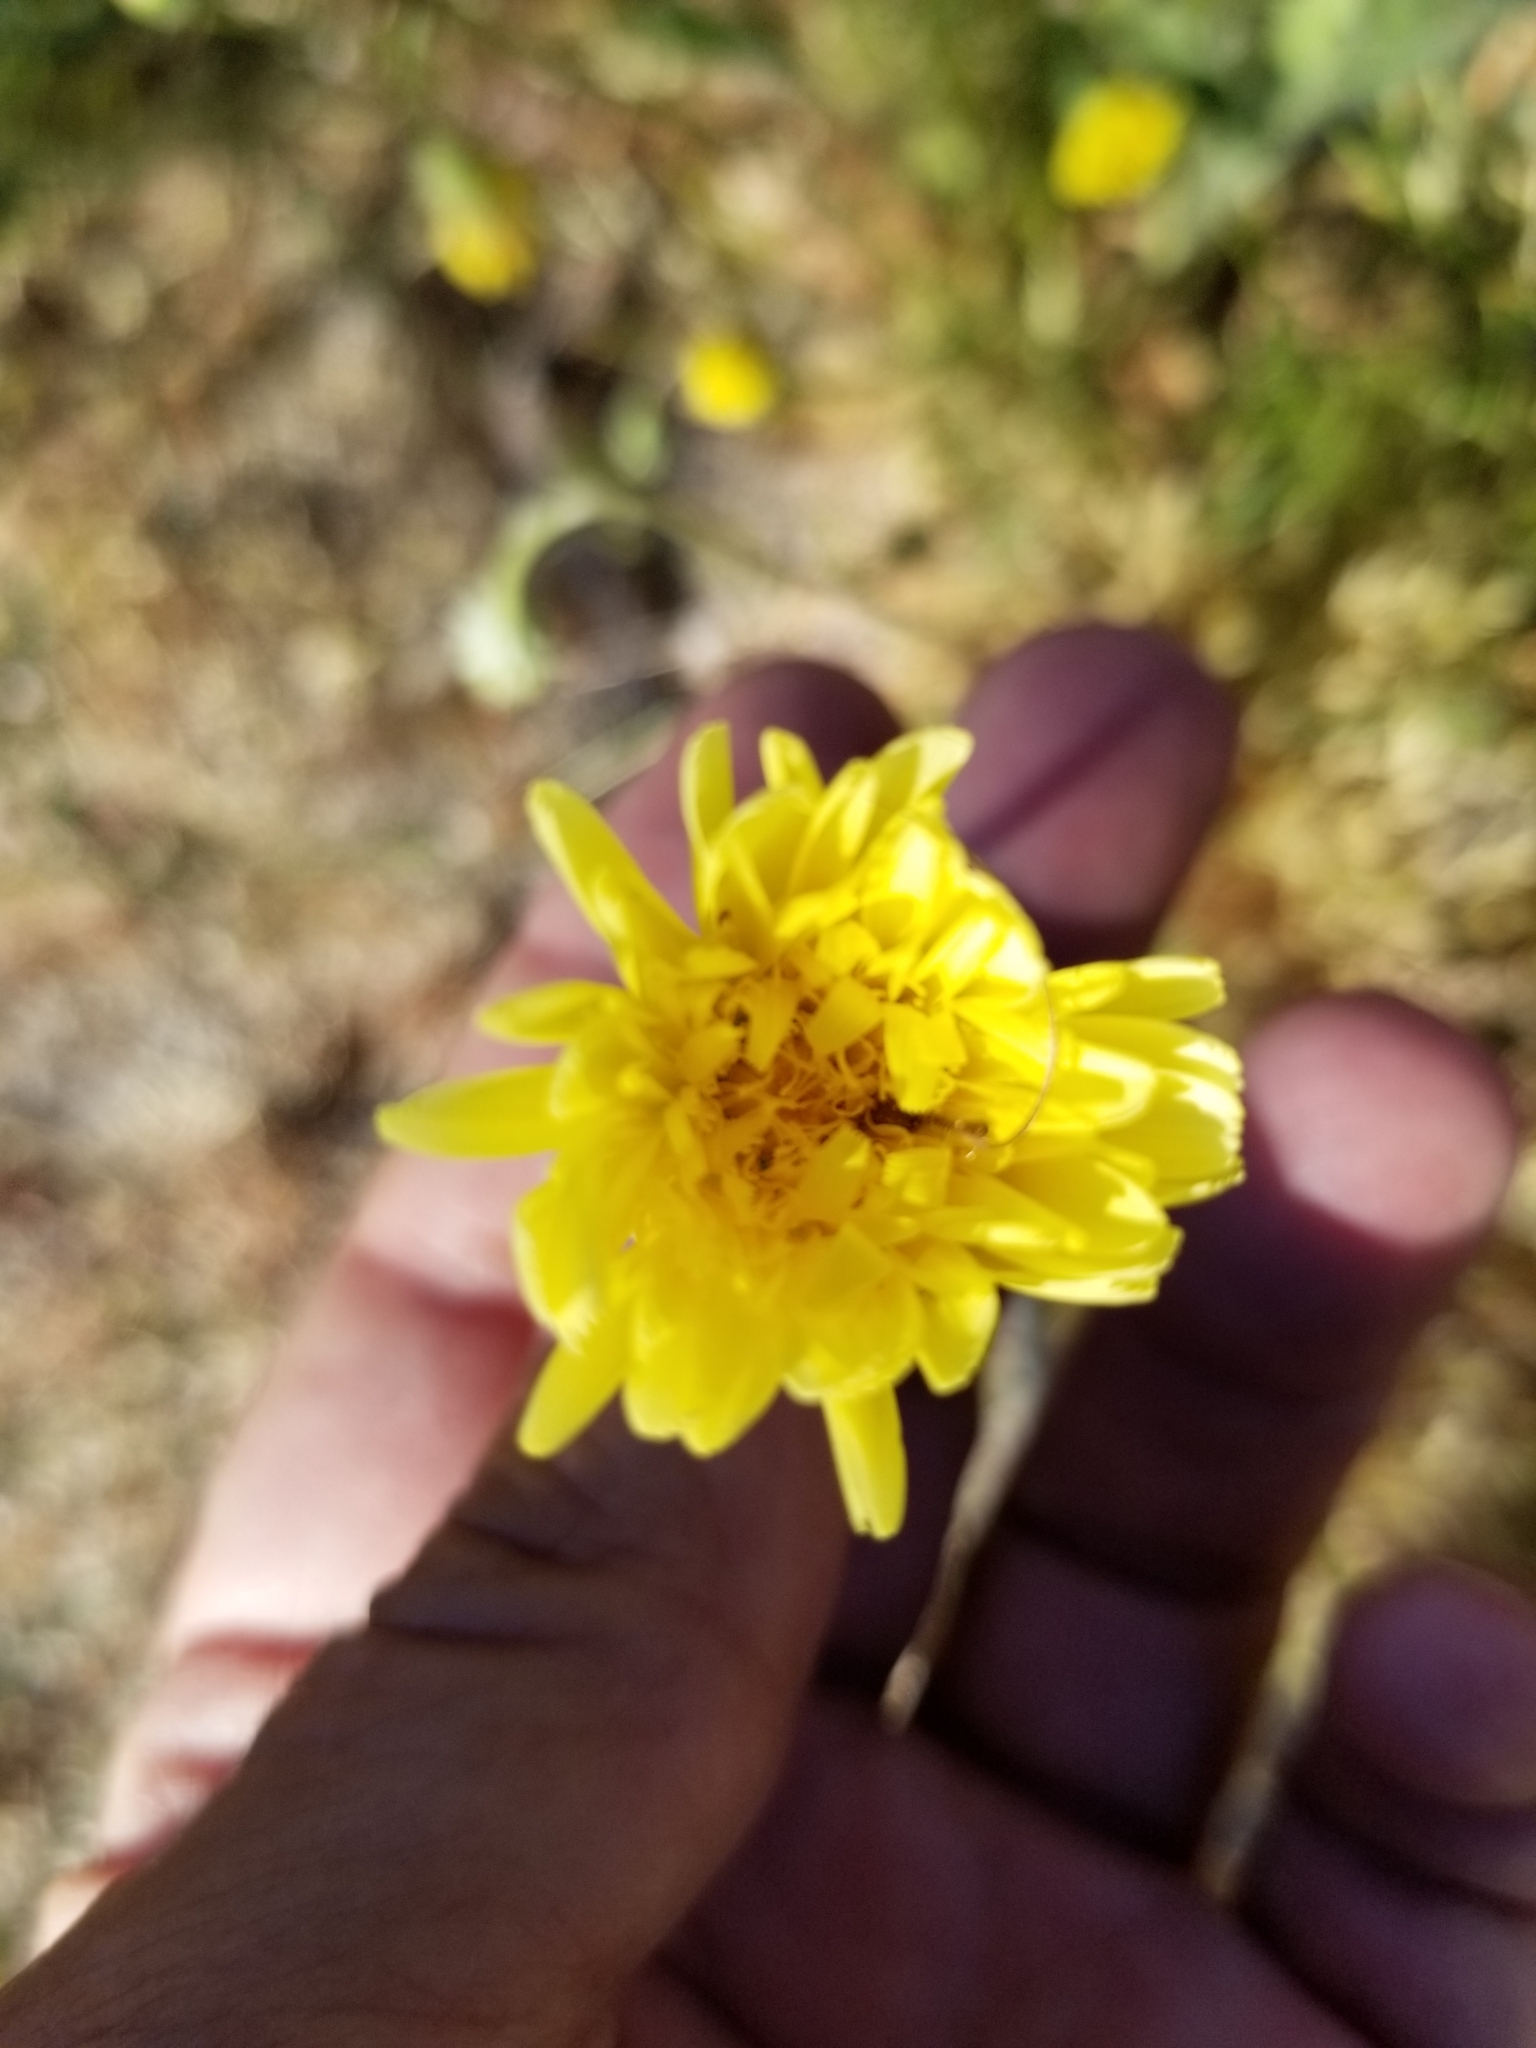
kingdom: Plantae
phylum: Tracheophyta
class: Magnoliopsida
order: Asterales
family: Asteraceae
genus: Malacothrix
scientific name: Malacothrix glabrata
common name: Smooth desert-dandelion
